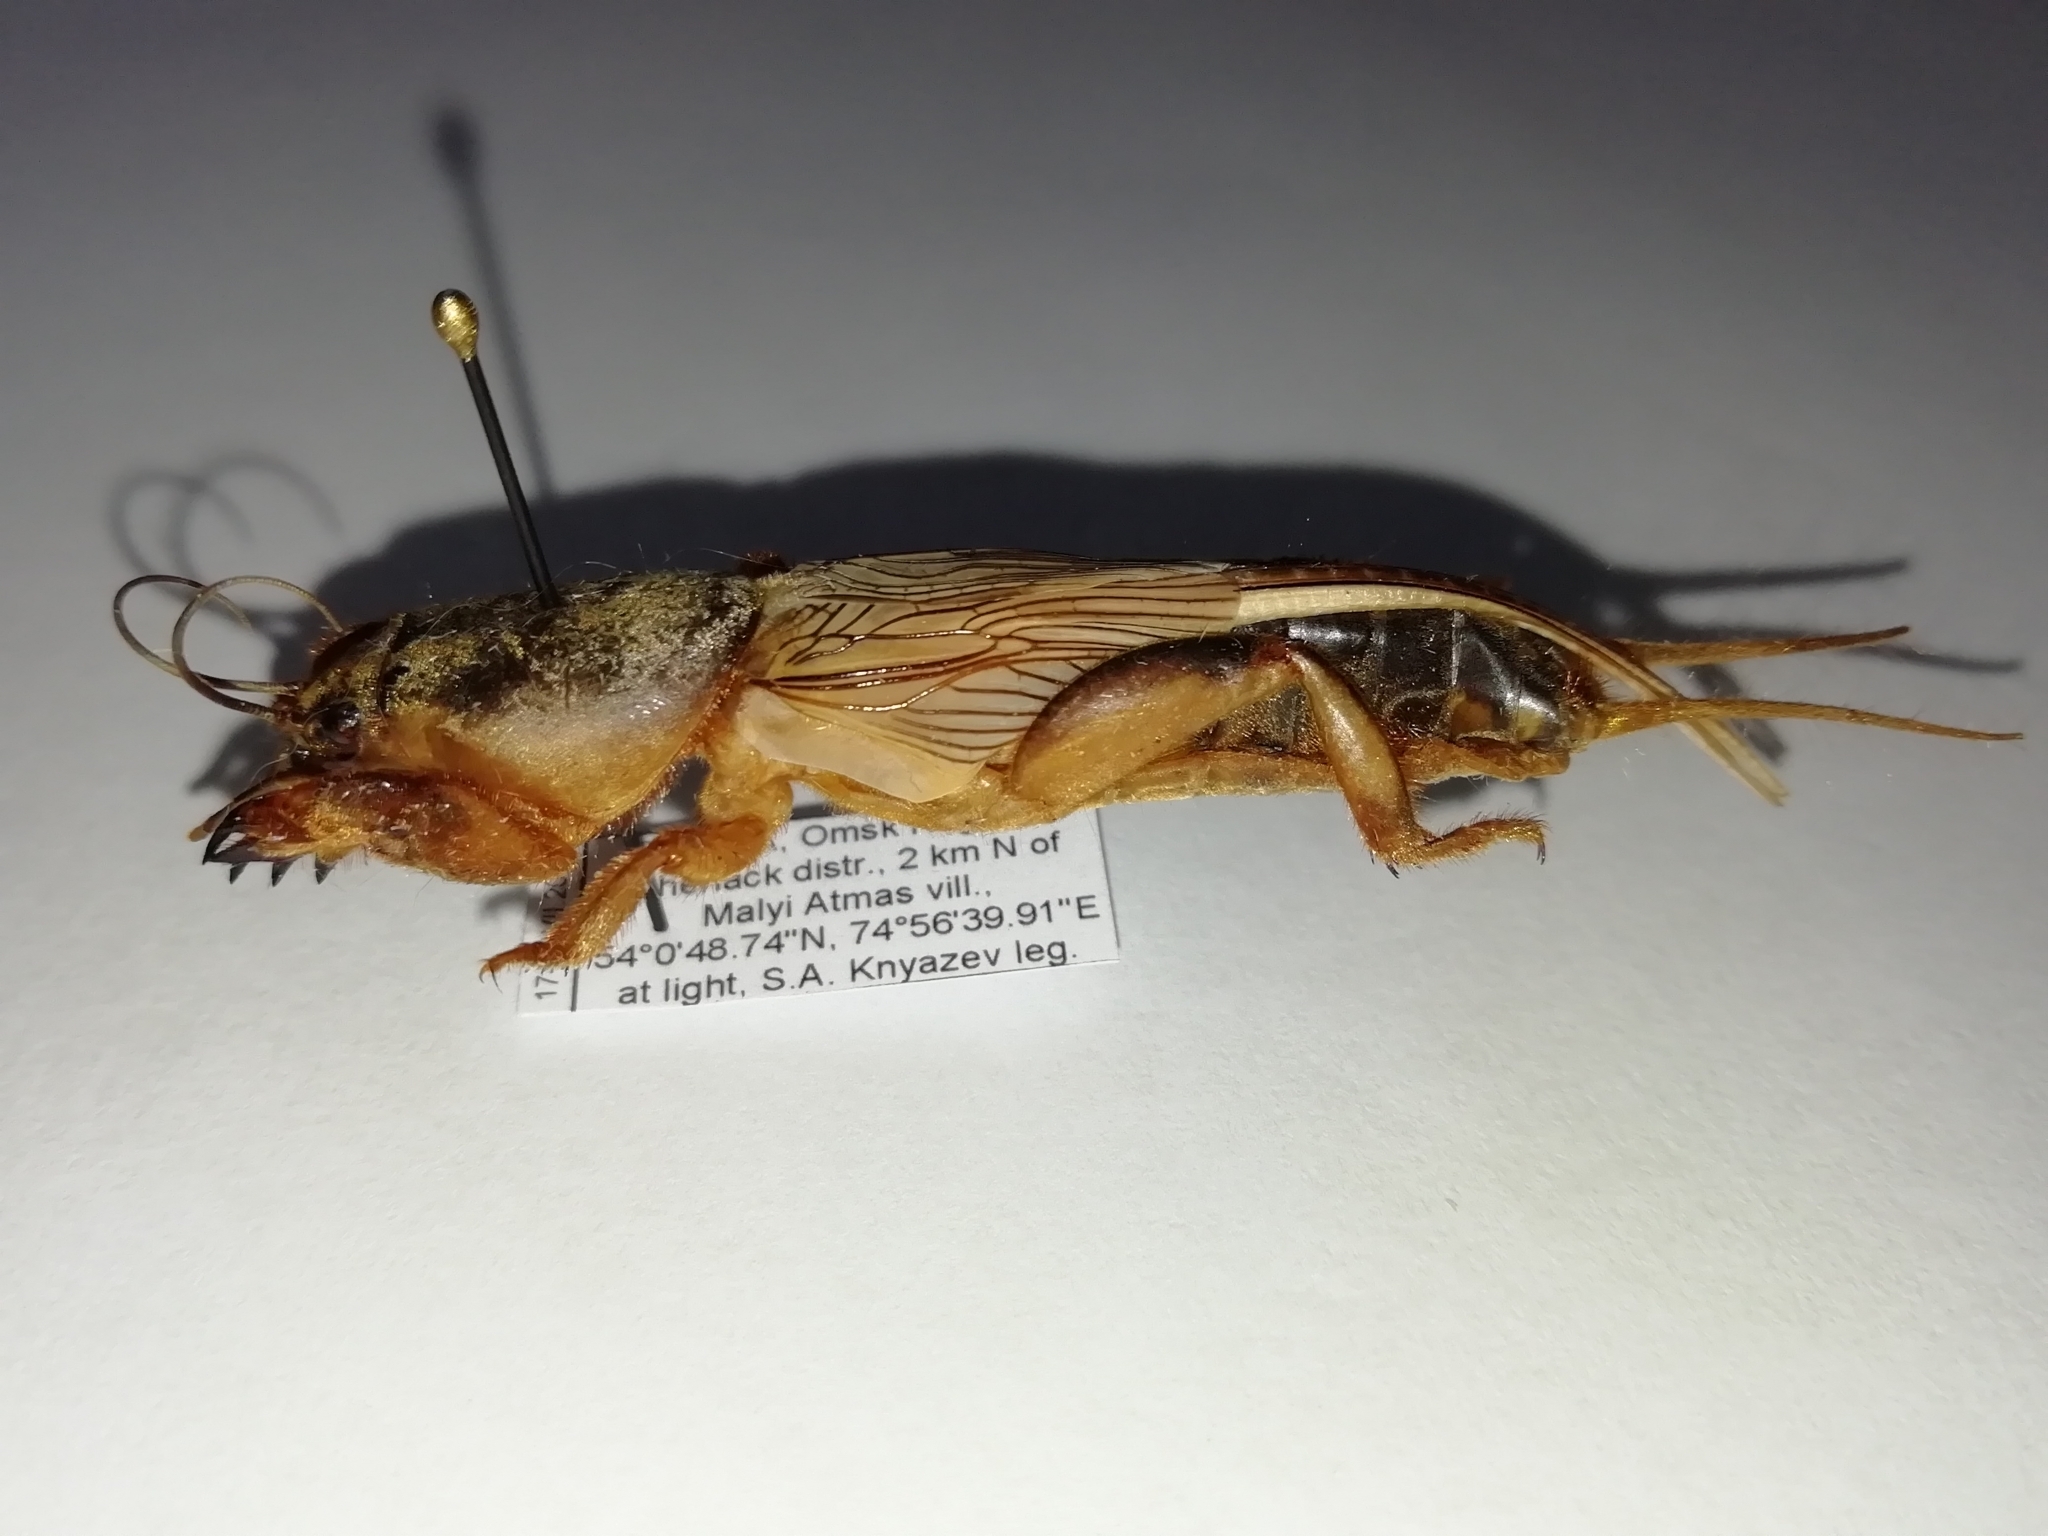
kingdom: Animalia
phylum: Arthropoda
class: Insecta
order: Orthoptera
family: Gryllotalpidae
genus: Gryllotalpa
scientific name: Gryllotalpa gryllotalpa
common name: European mole cricket
